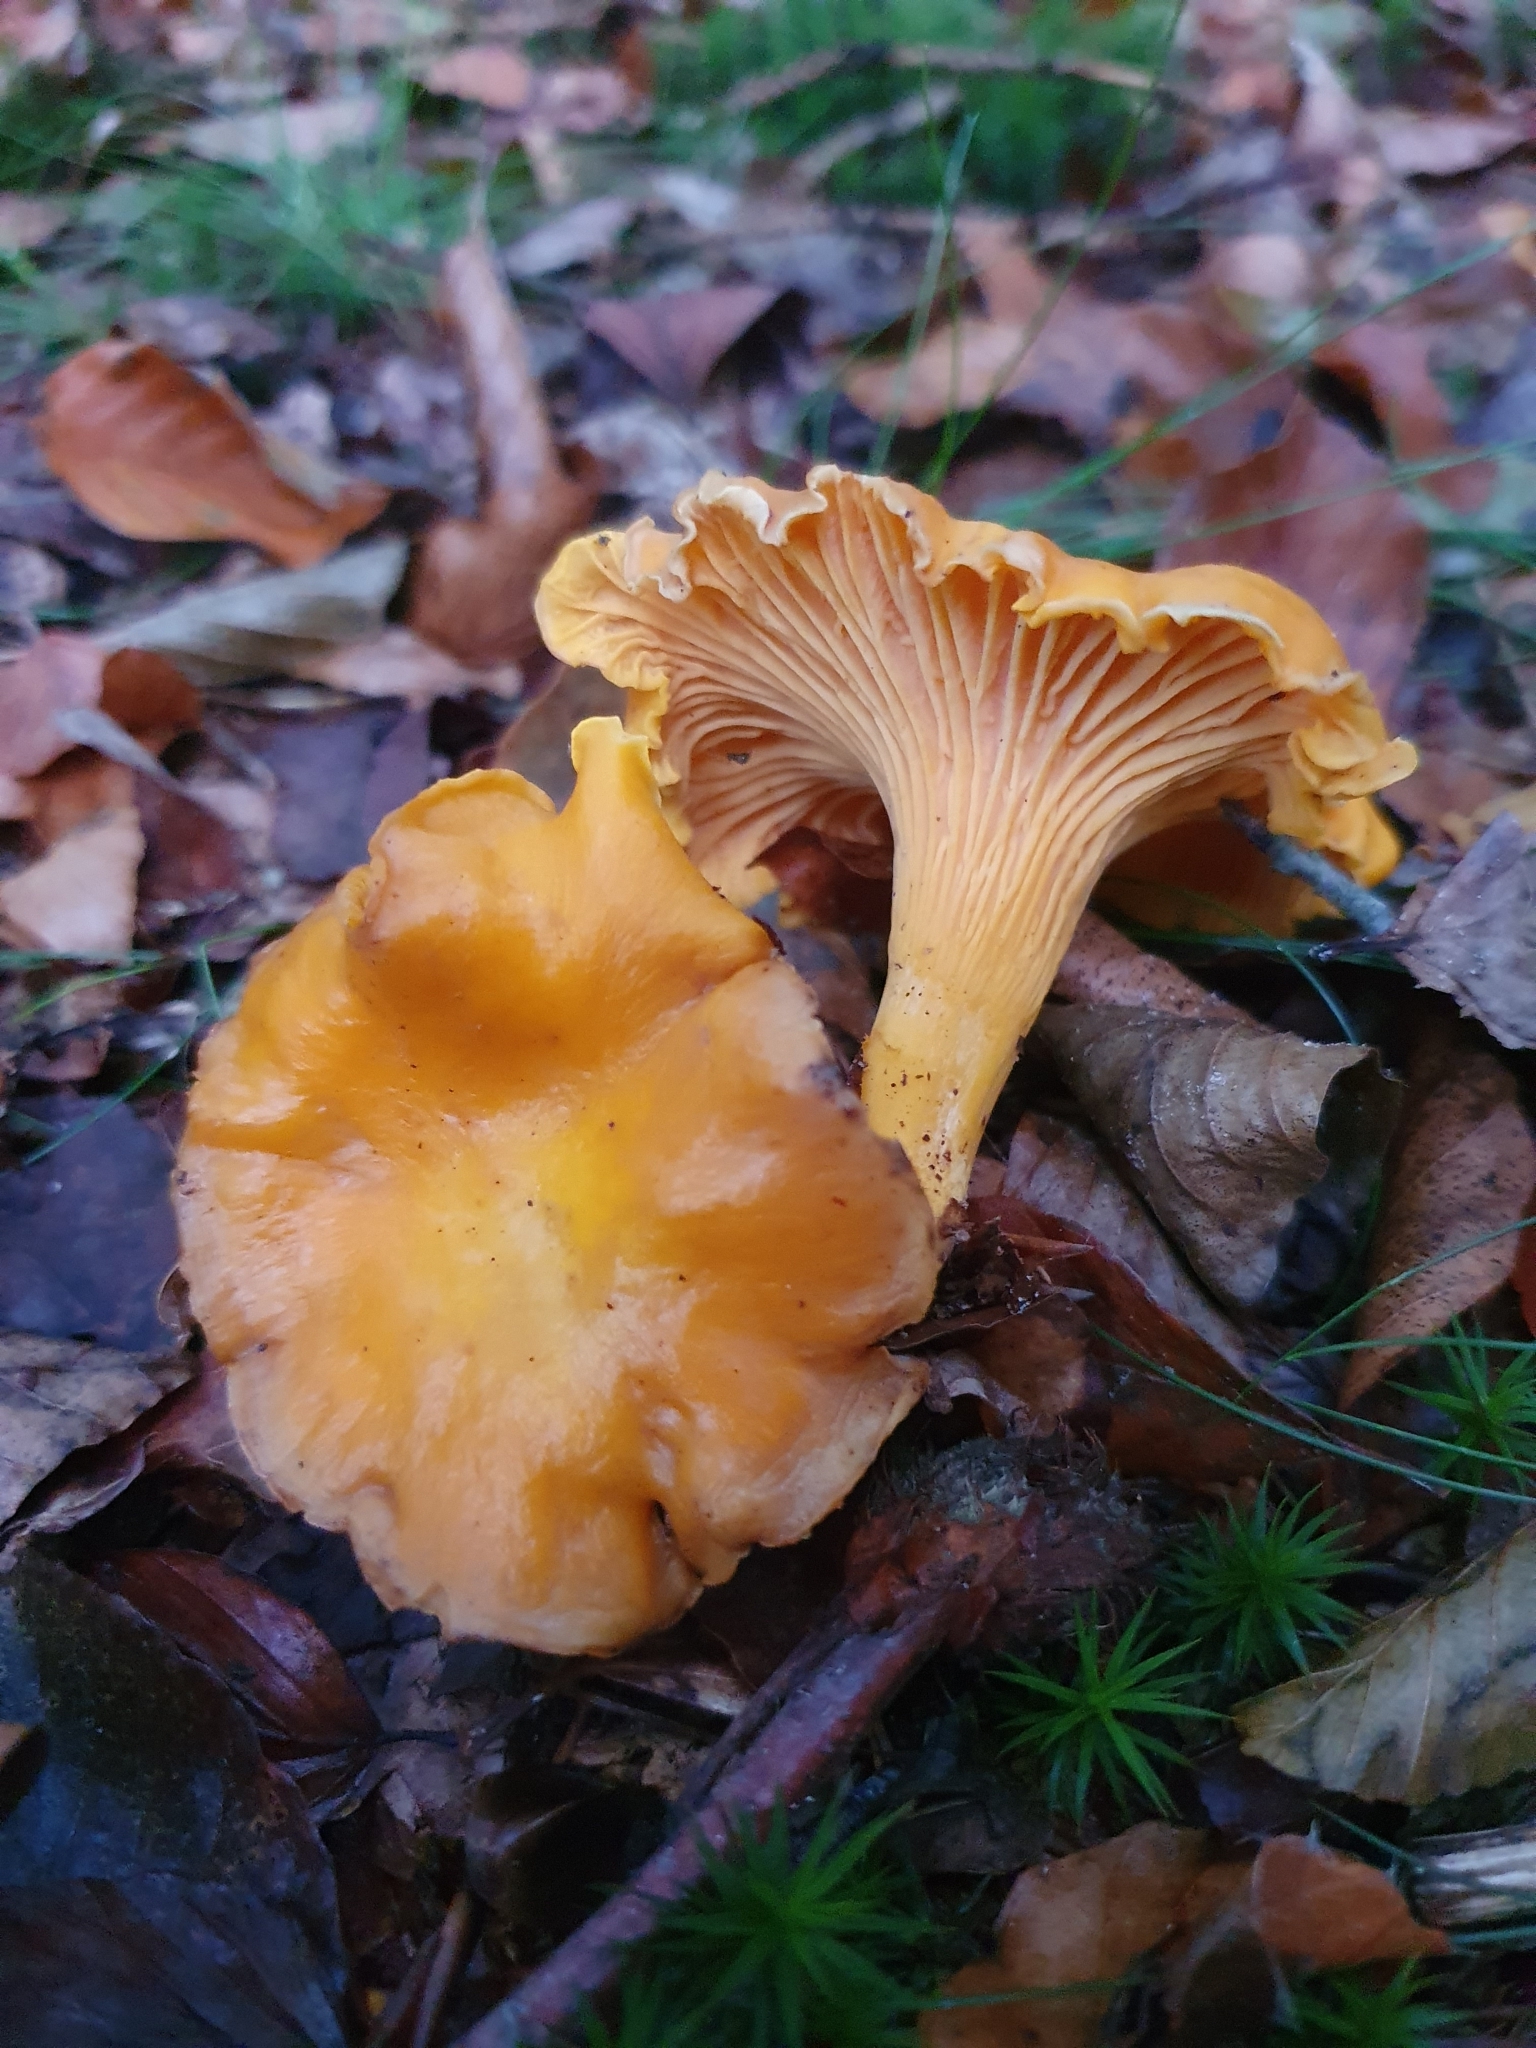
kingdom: Fungi
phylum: Basidiomycota
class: Agaricomycetes
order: Cantharellales
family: Hydnaceae
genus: Cantharellus
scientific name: Cantharellus cibarius
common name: Chanterelle
